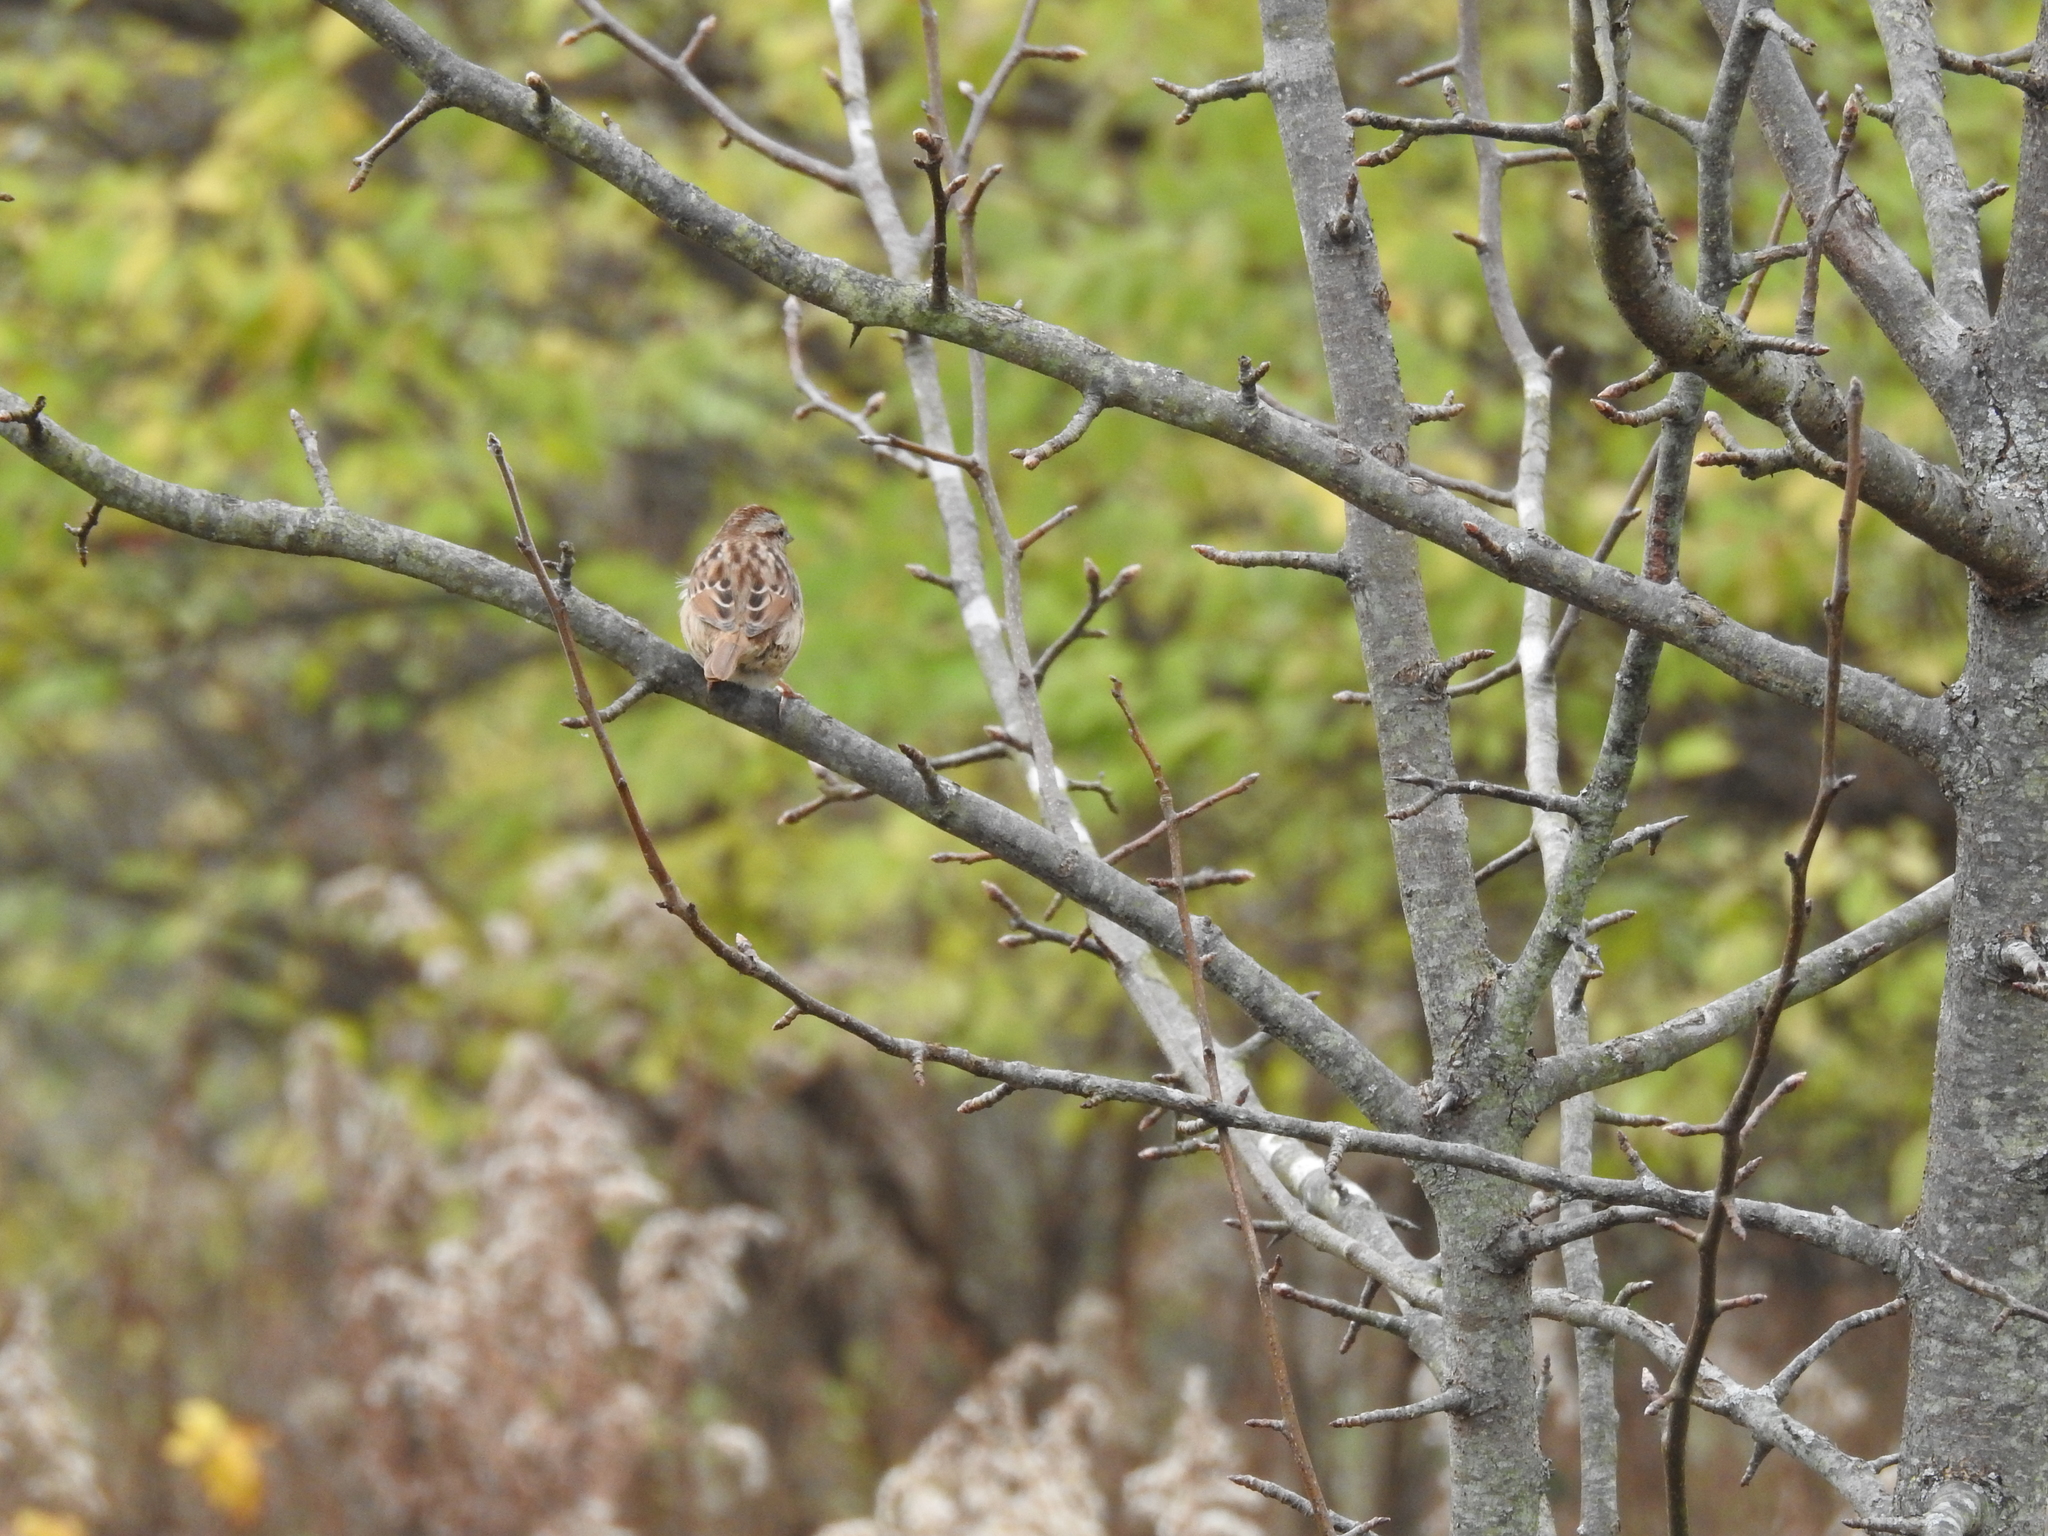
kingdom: Animalia
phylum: Chordata
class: Aves
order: Passeriformes
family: Passerellidae
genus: Melospiza
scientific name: Melospiza melodia
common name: Song sparrow
